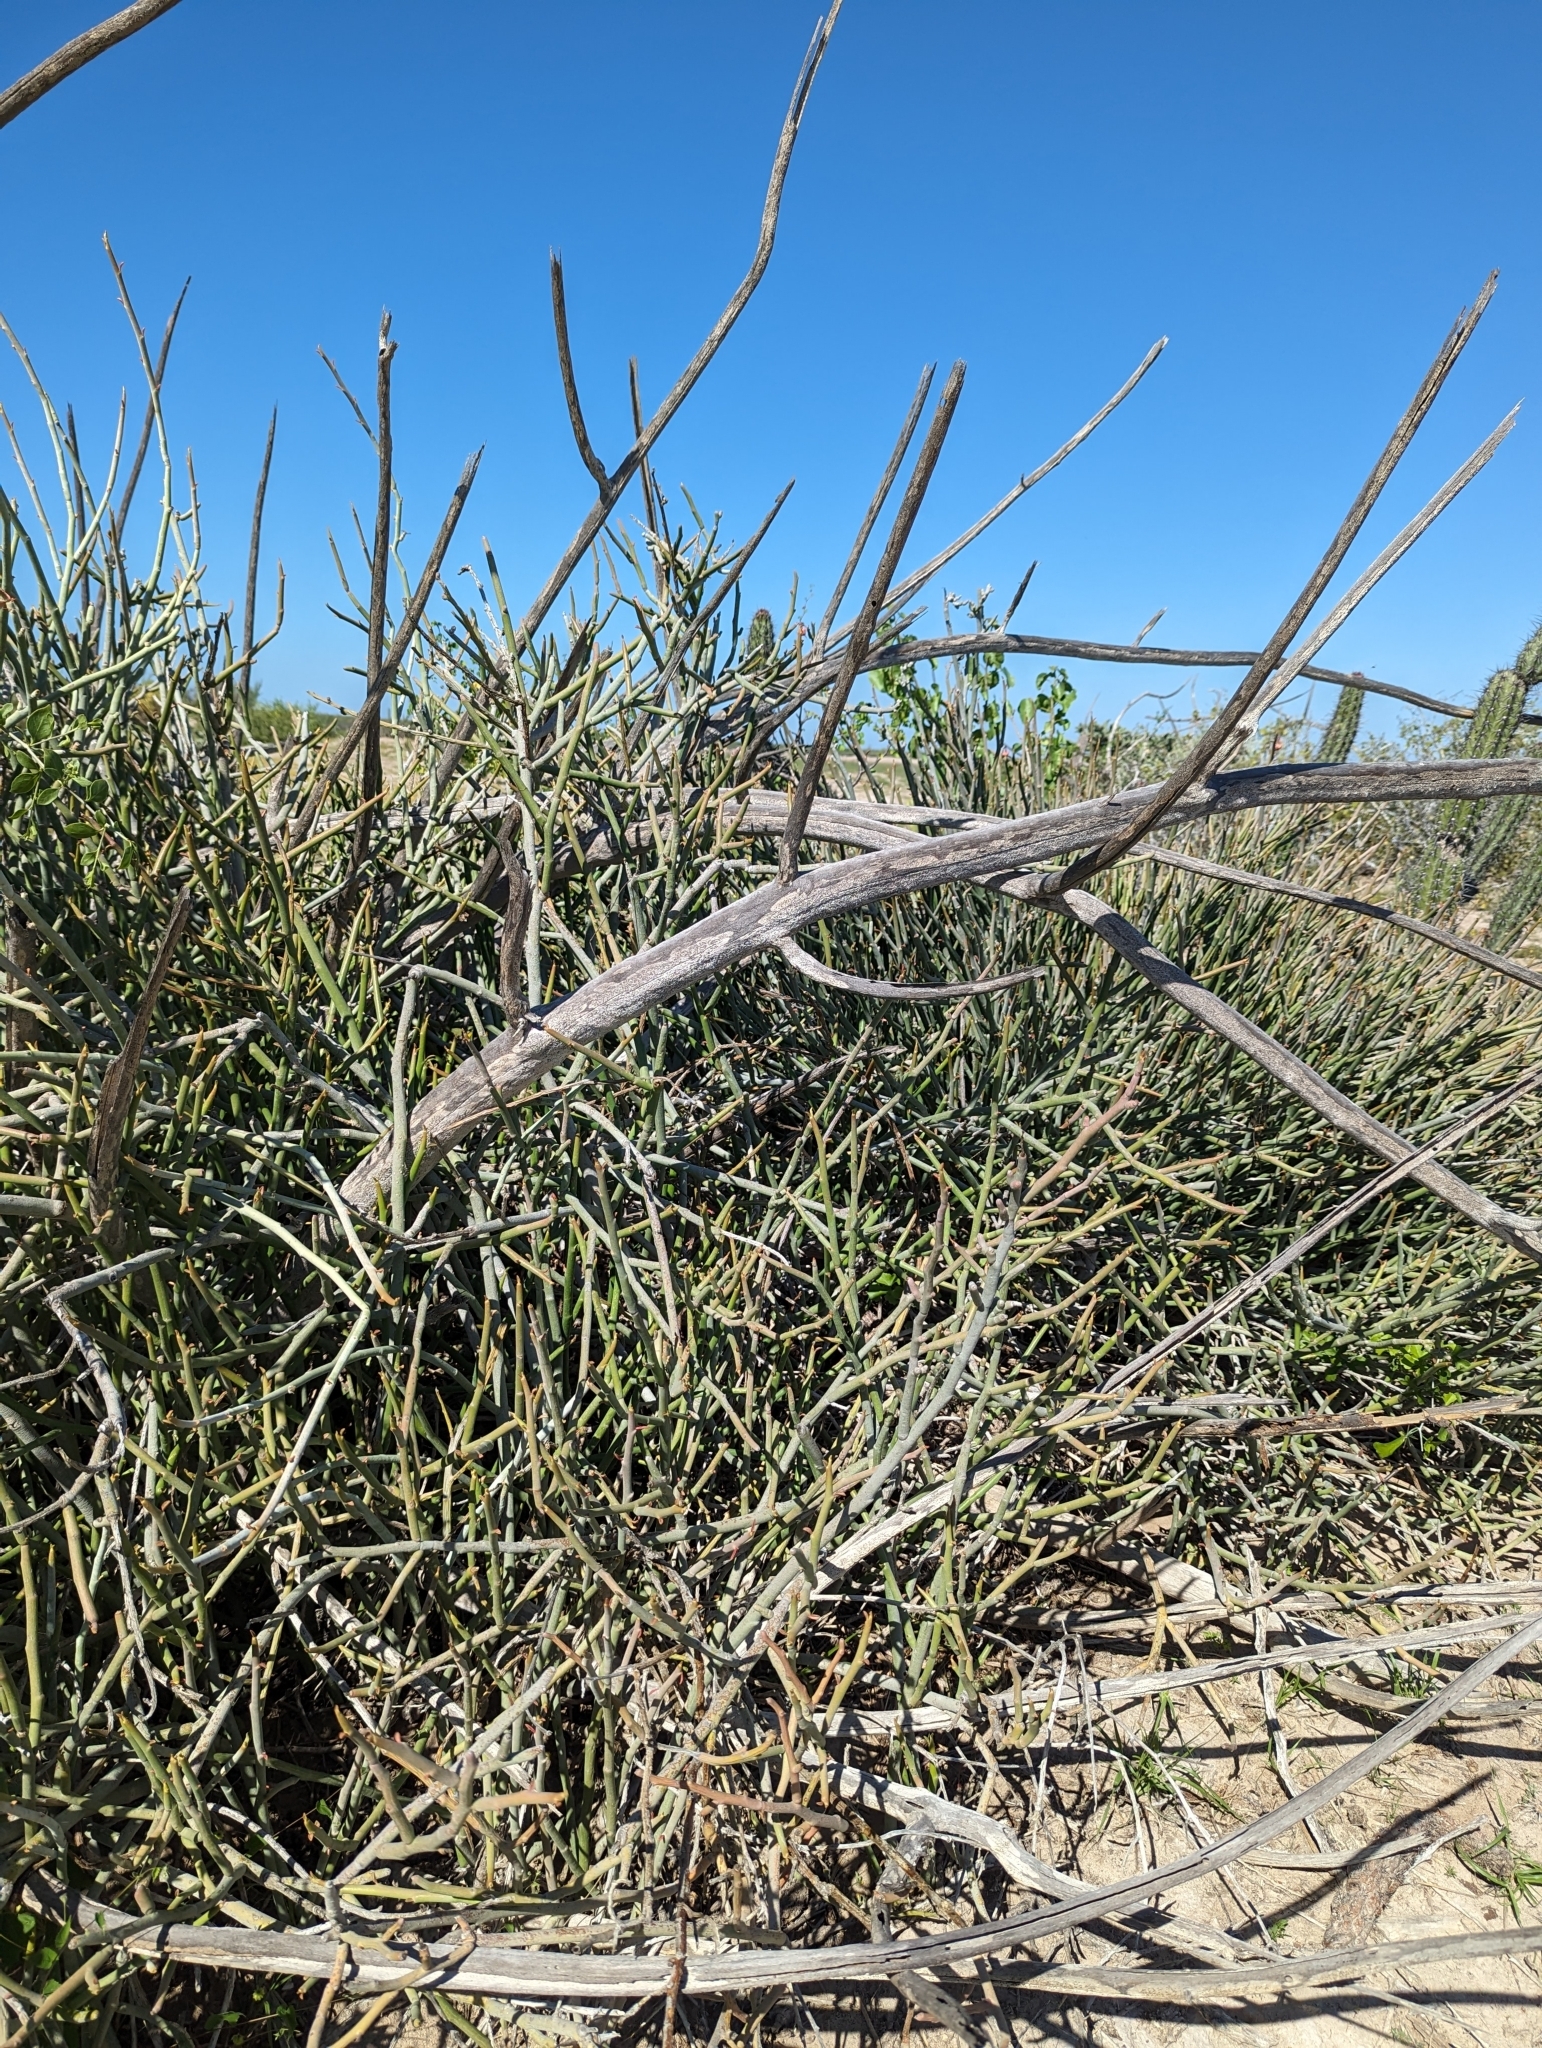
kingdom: Plantae
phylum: Tracheophyta
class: Magnoliopsida
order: Malpighiales
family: Euphorbiaceae
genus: Euphorbia
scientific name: Euphorbia lomelii
